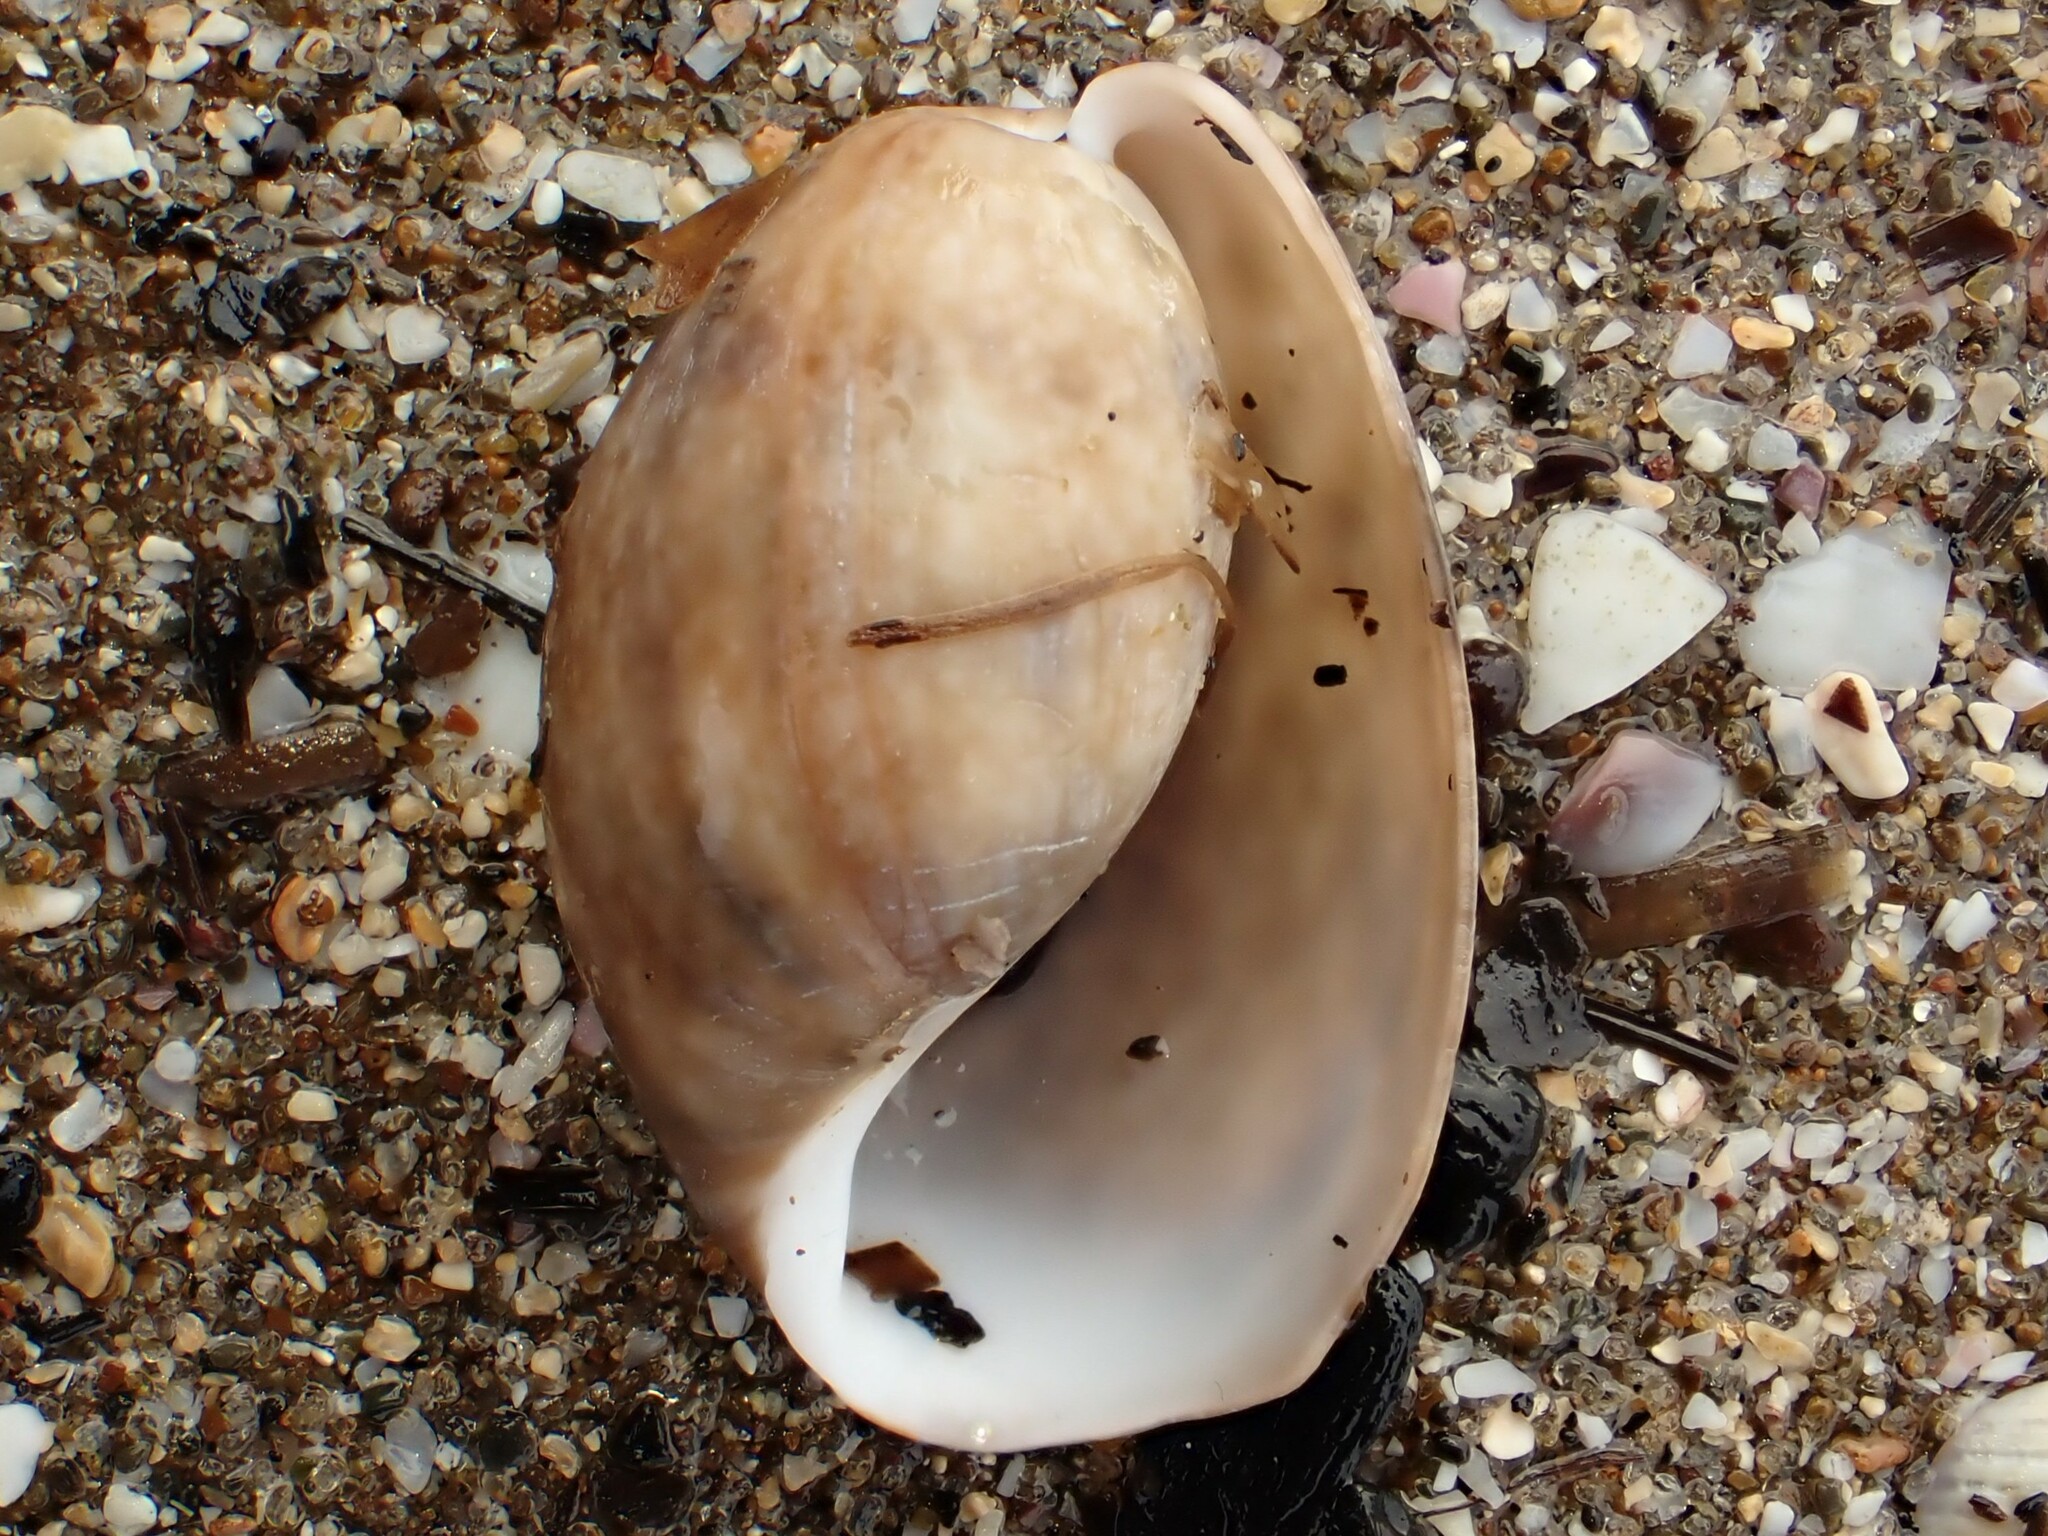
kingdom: Animalia
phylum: Mollusca
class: Gastropoda
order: Cephalaspidea
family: Bullidae
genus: Bulla
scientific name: Bulla quoyii
